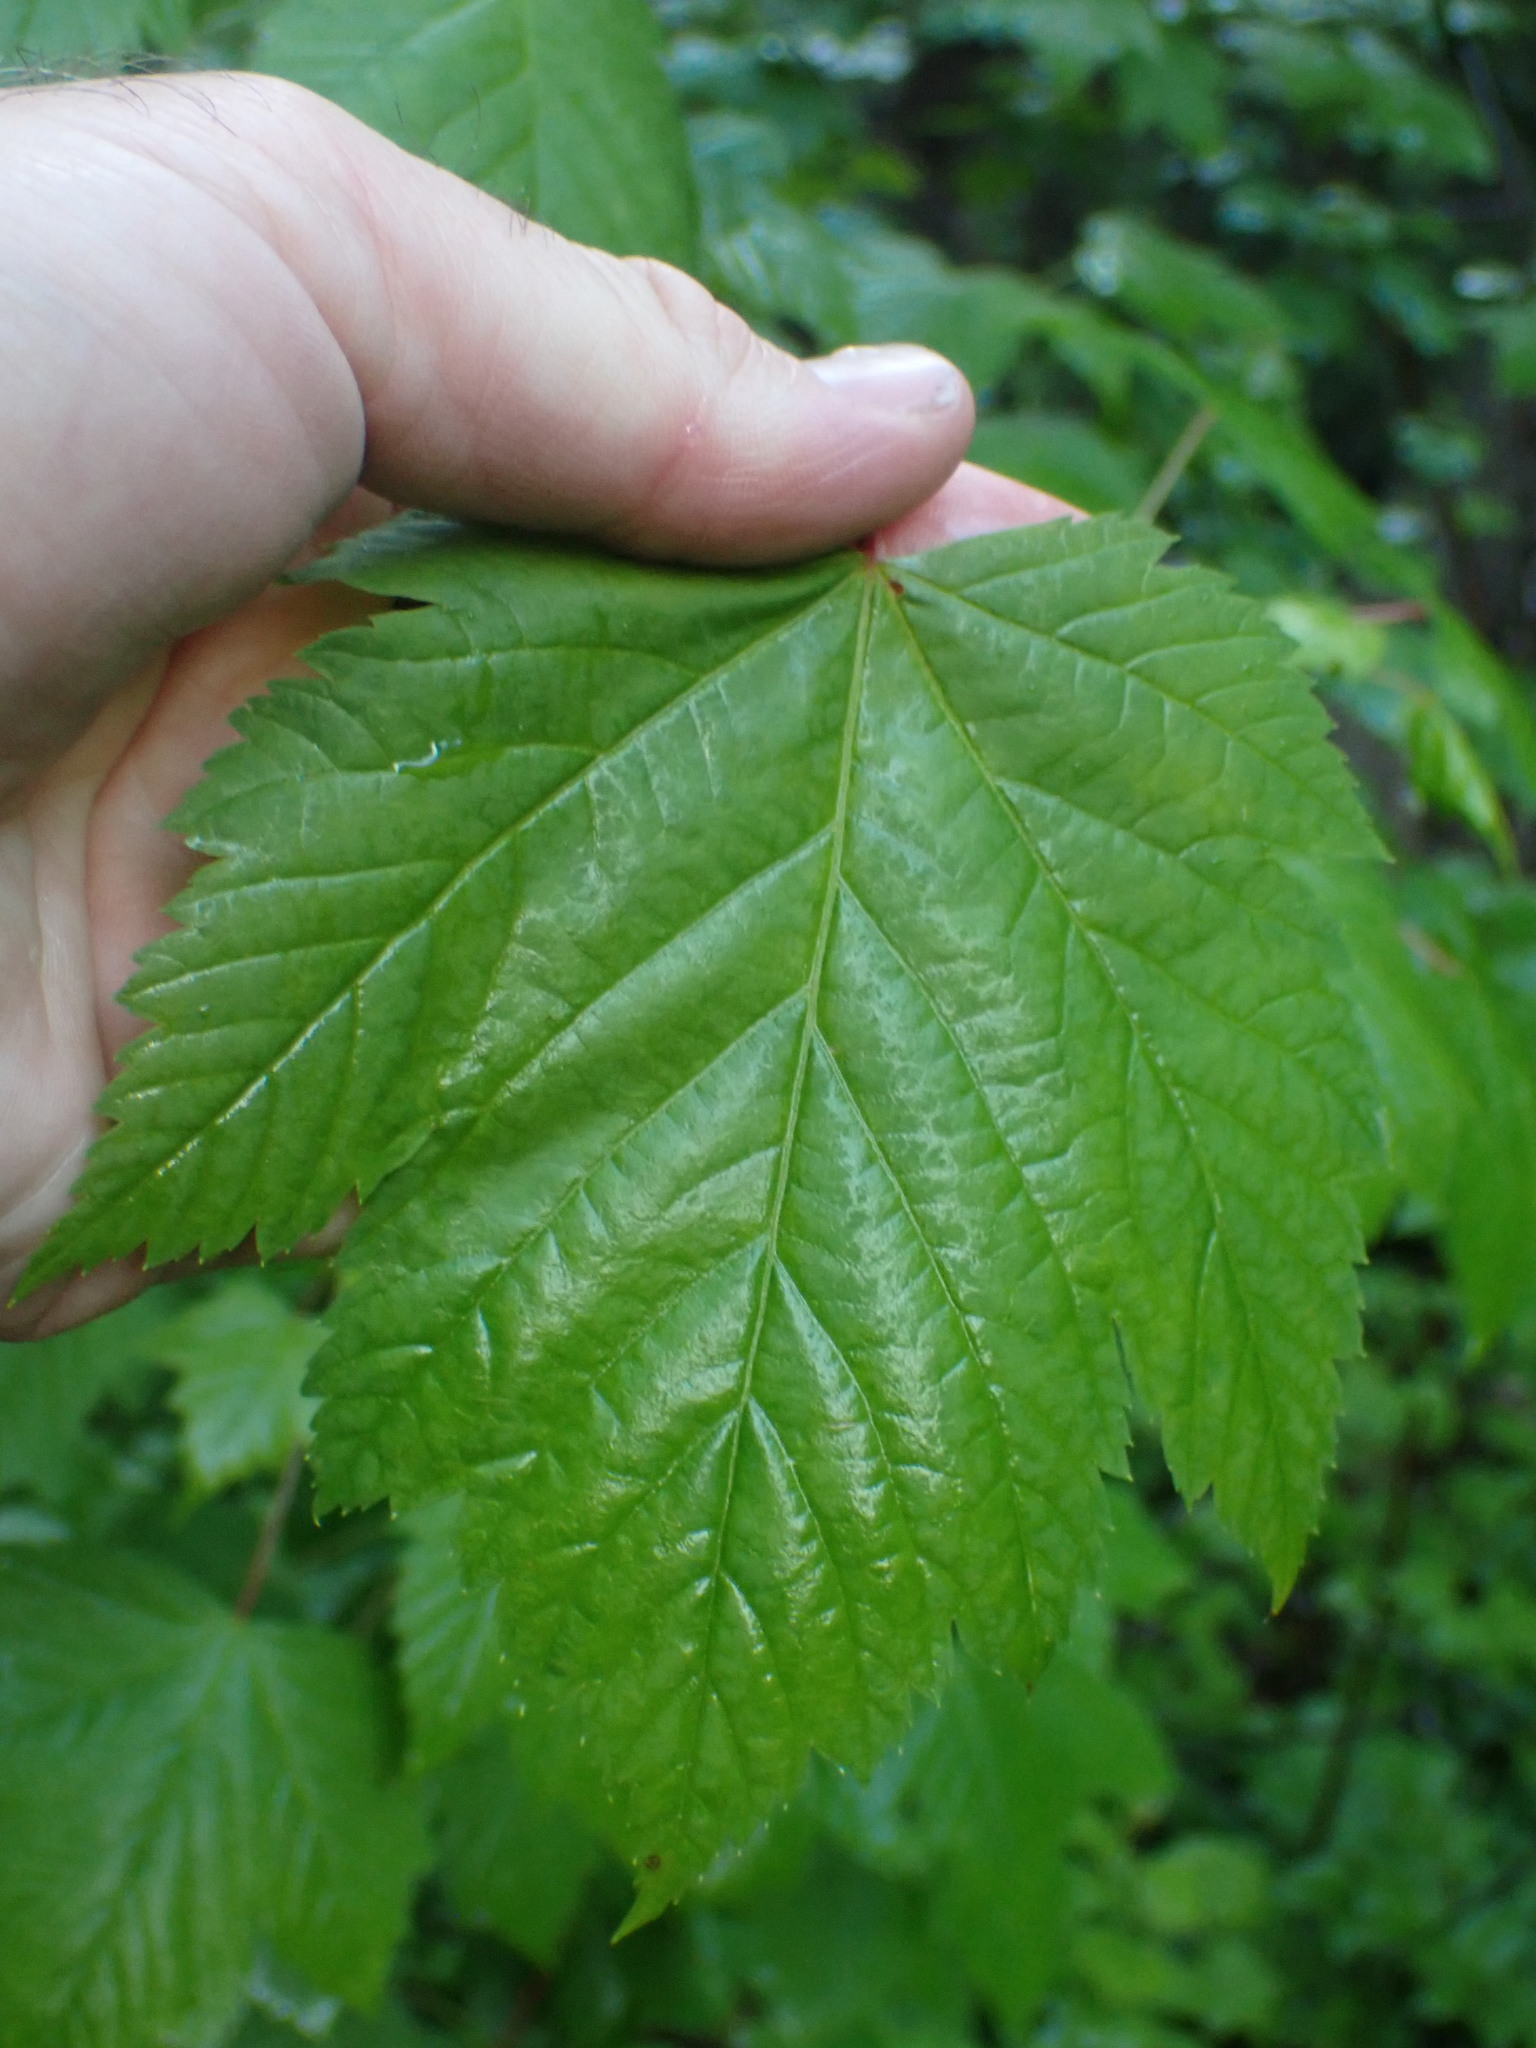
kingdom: Plantae
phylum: Tracheophyta
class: Magnoliopsida
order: Sapindales
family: Sapindaceae
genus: Acer
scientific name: Acer glabrum
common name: Rocky mountain maple
